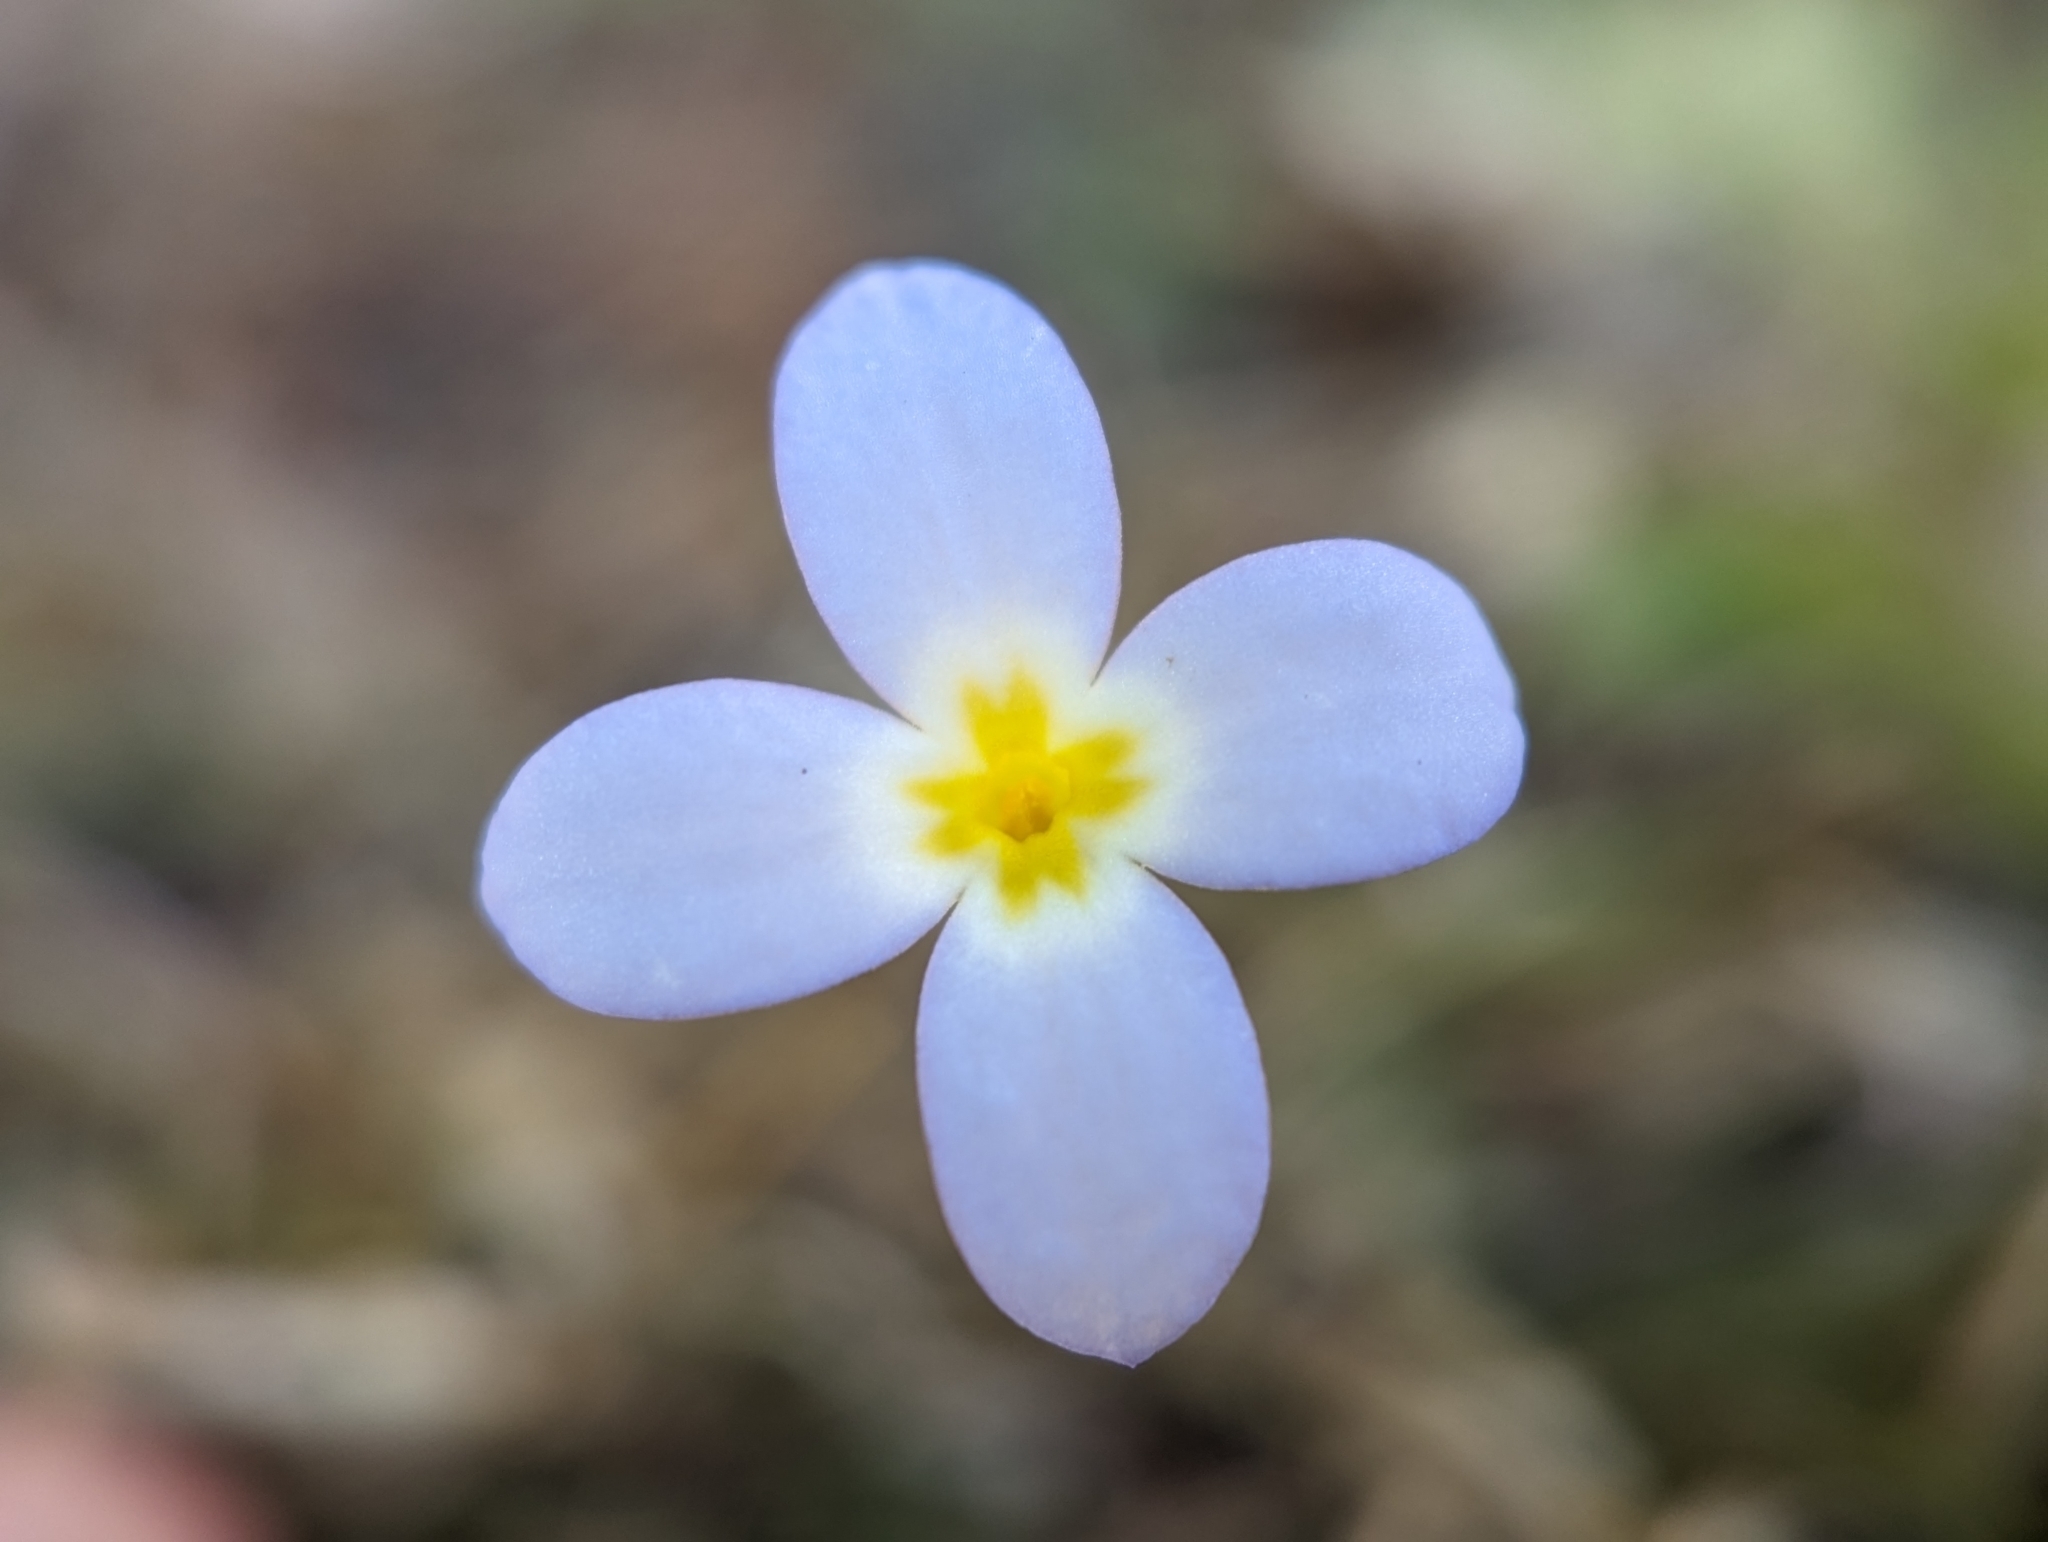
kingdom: Plantae
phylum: Tracheophyta
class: Magnoliopsida
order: Gentianales
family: Rubiaceae
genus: Houstonia
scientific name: Houstonia caerulea
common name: Bluets
